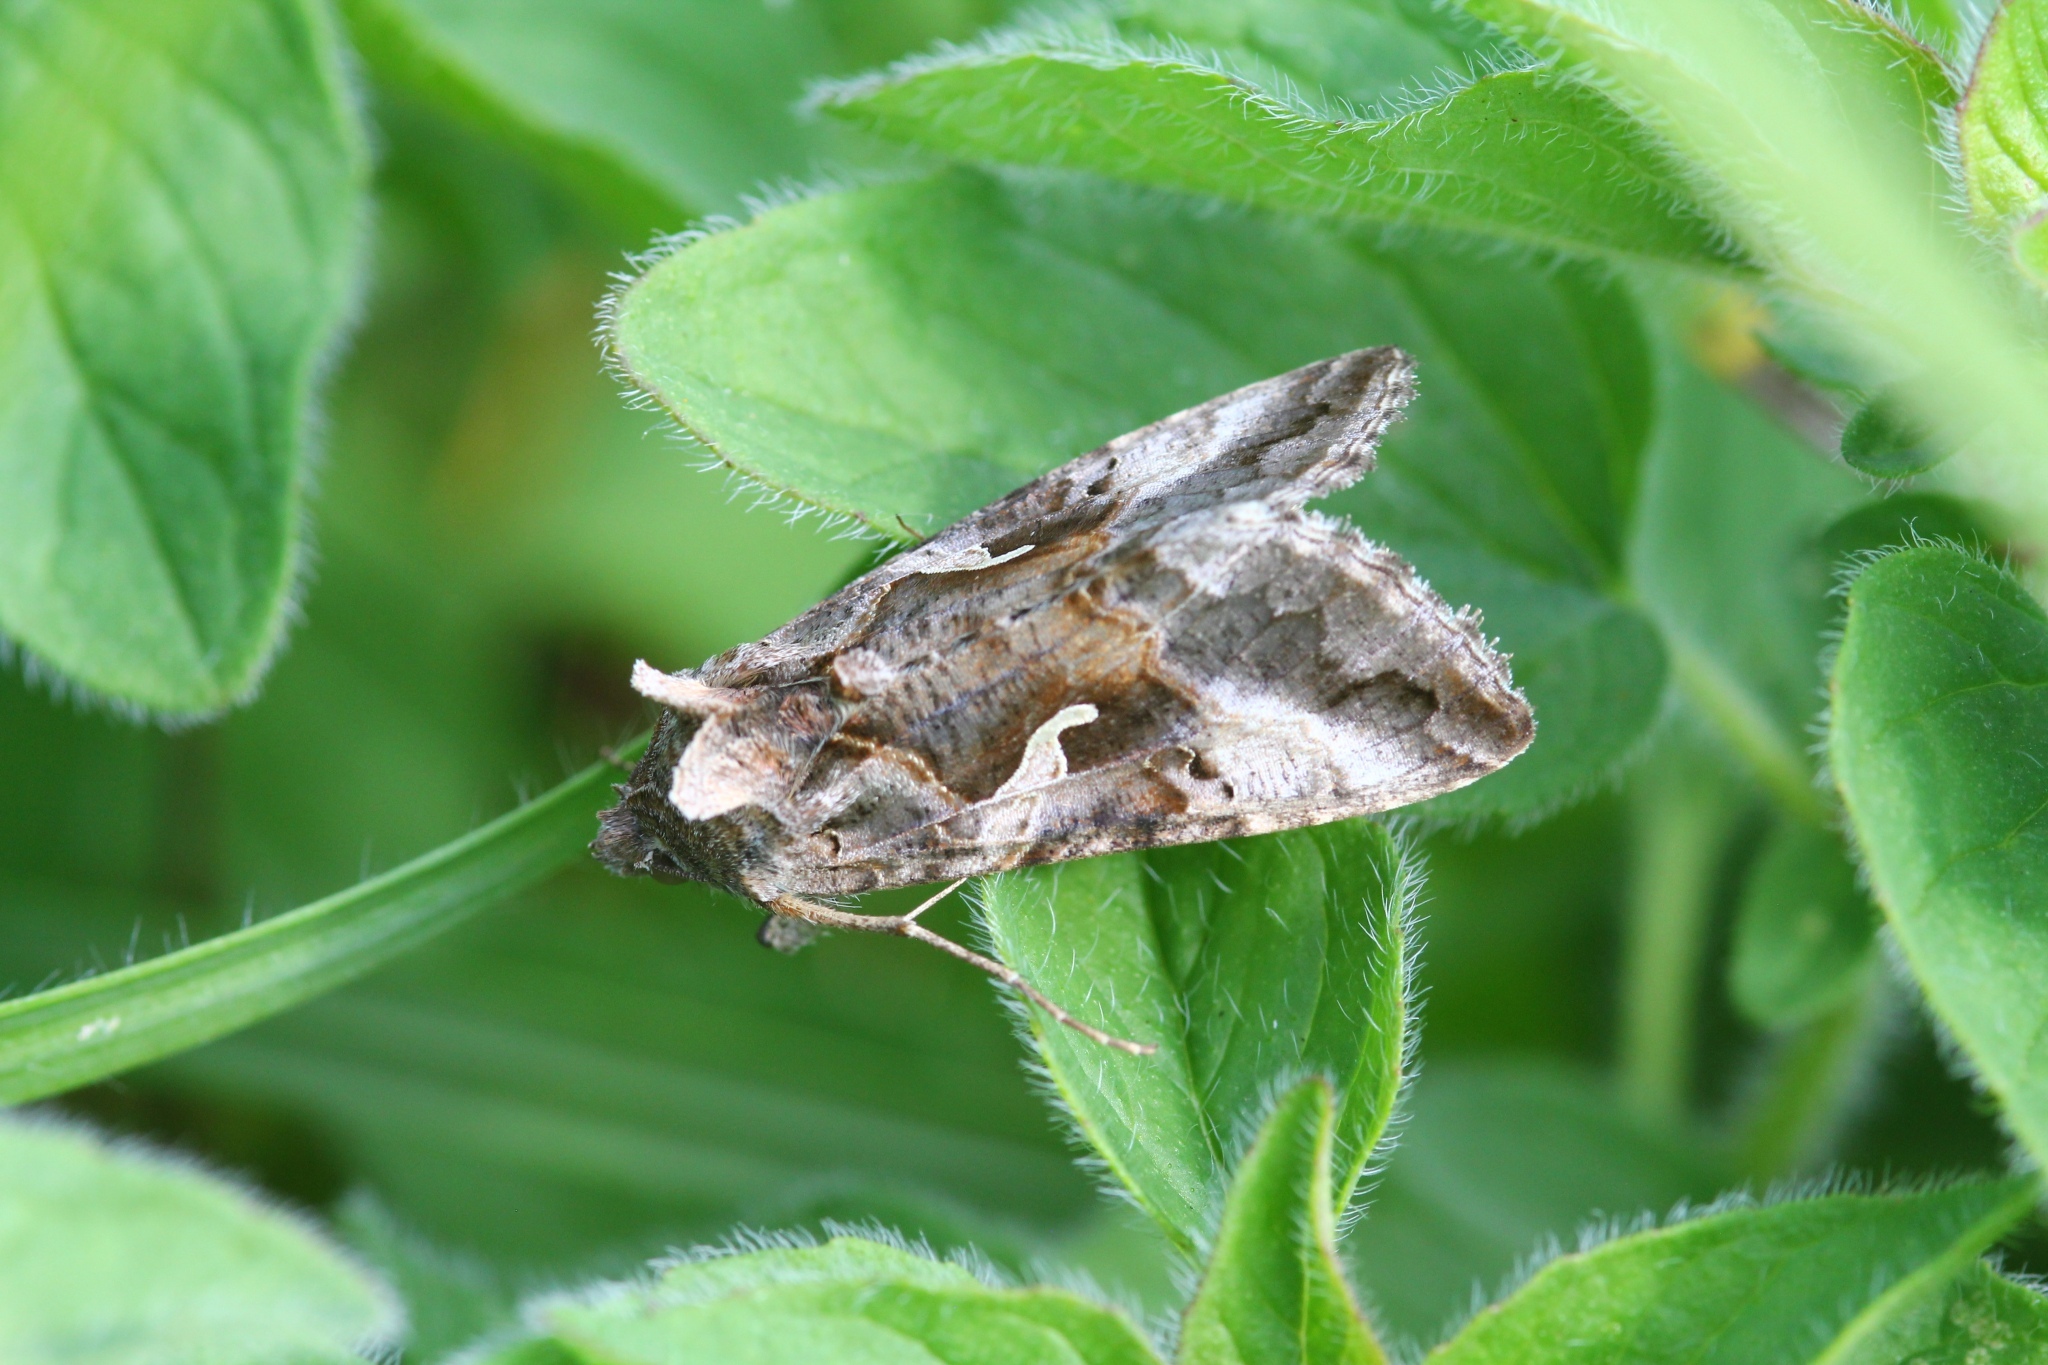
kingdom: Animalia
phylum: Arthropoda
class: Insecta
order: Lepidoptera
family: Noctuidae
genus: Autographa
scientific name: Autographa gamma
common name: Silver y
